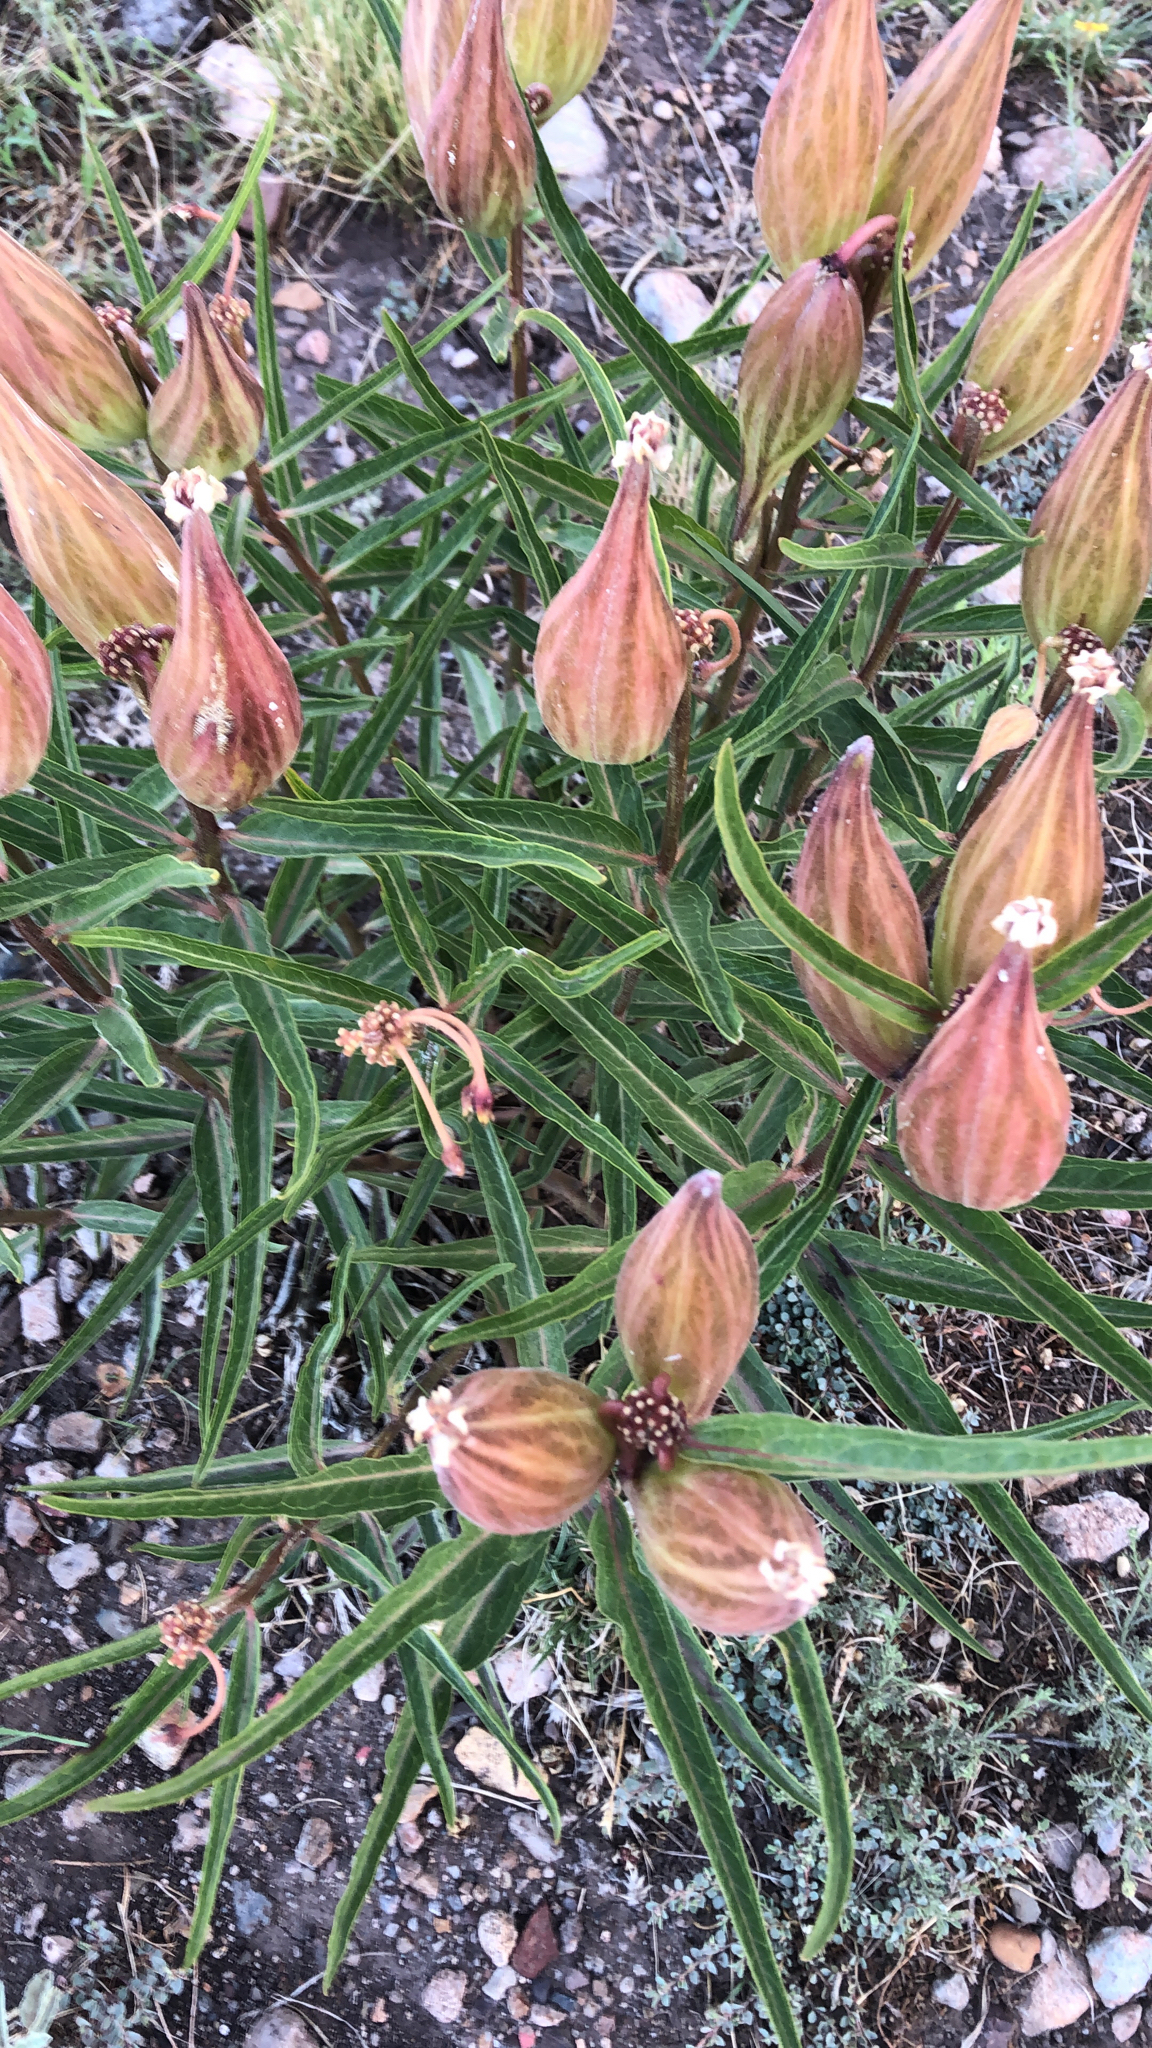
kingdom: Plantae
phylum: Tracheophyta
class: Magnoliopsida
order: Gentianales
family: Apocynaceae
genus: Asclepias
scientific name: Asclepias asperula
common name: Antelope horns
